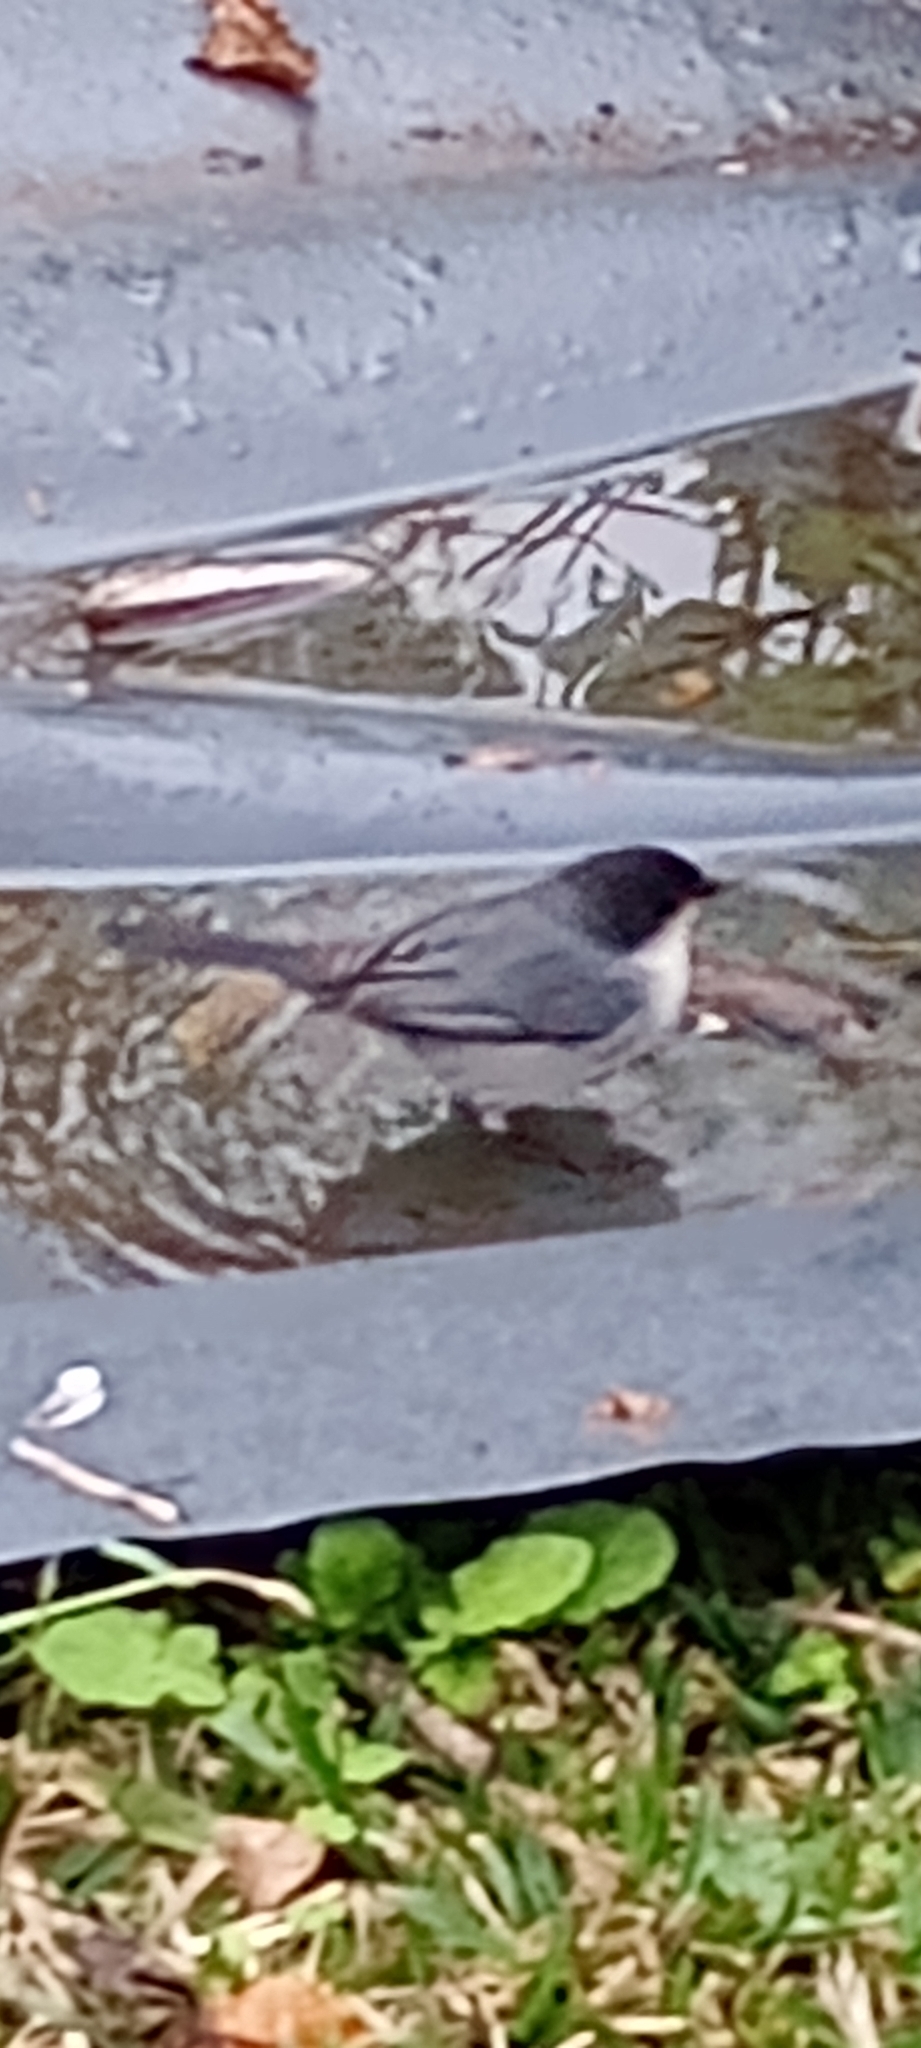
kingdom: Animalia
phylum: Chordata
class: Aves
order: Passeriformes
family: Thraupidae
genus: Microspingus
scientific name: Microspingus melanoleucus
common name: Black-capped warbling-finch
